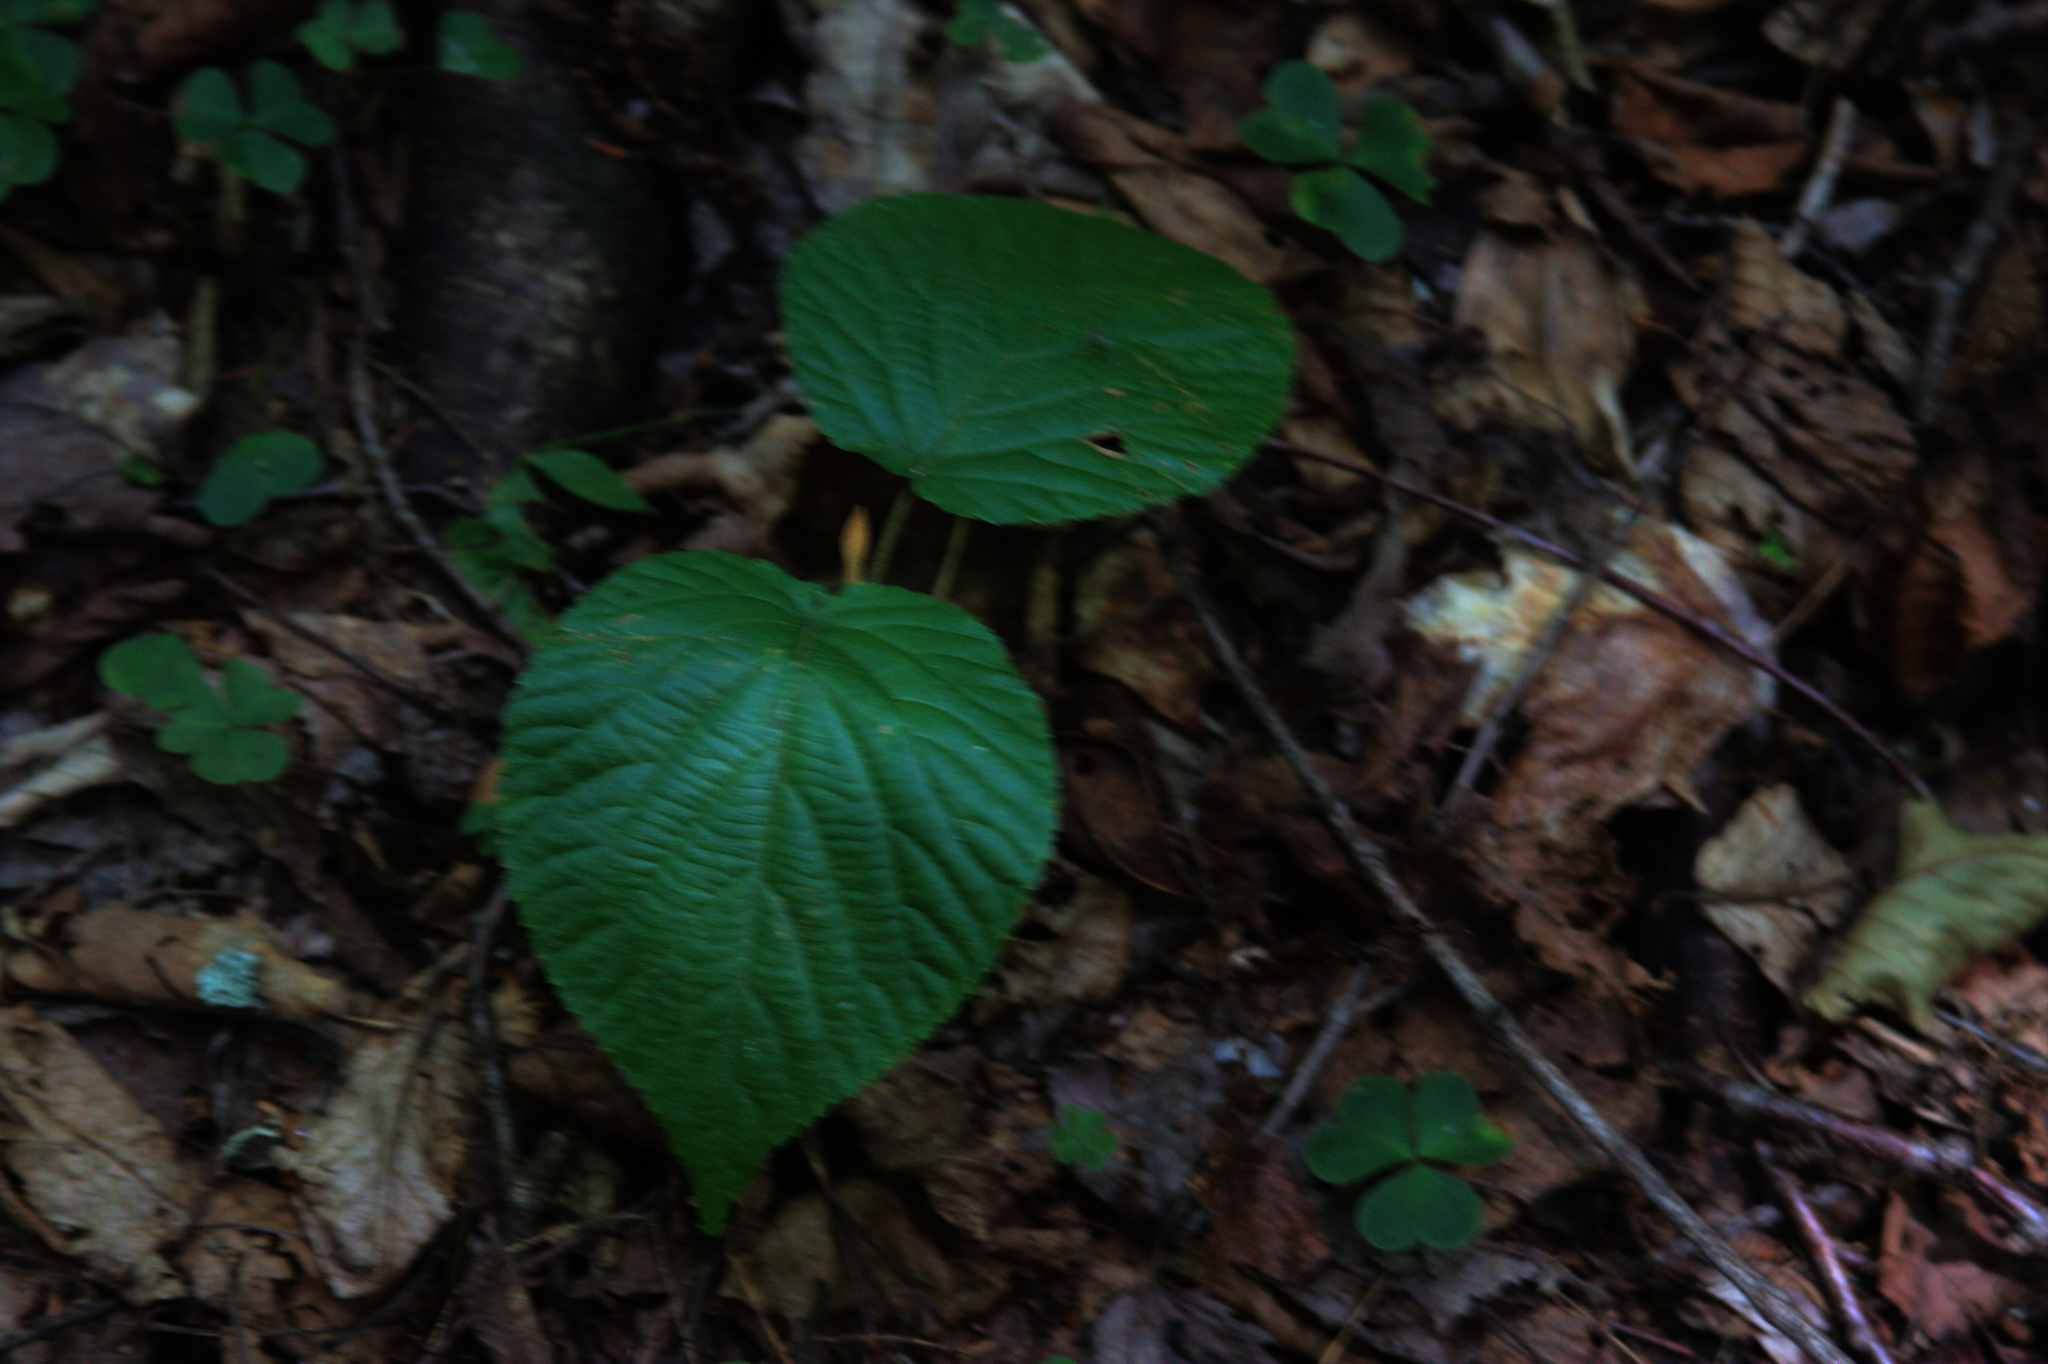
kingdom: Plantae
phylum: Tracheophyta
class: Magnoliopsida
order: Dipsacales
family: Viburnaceae
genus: Viburnum
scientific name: Viburnum lantanoides
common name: Hobblebush
